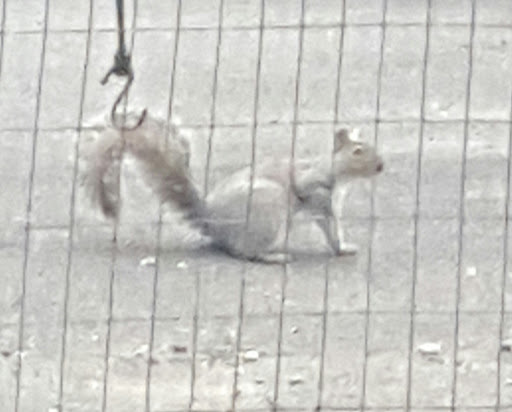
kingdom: Animalia
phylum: Chordata
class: Mammalia
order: Rodentia
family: Sciuridae
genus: Sciurus
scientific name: Sciurus carolinensis
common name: Eastern gray squirrel
